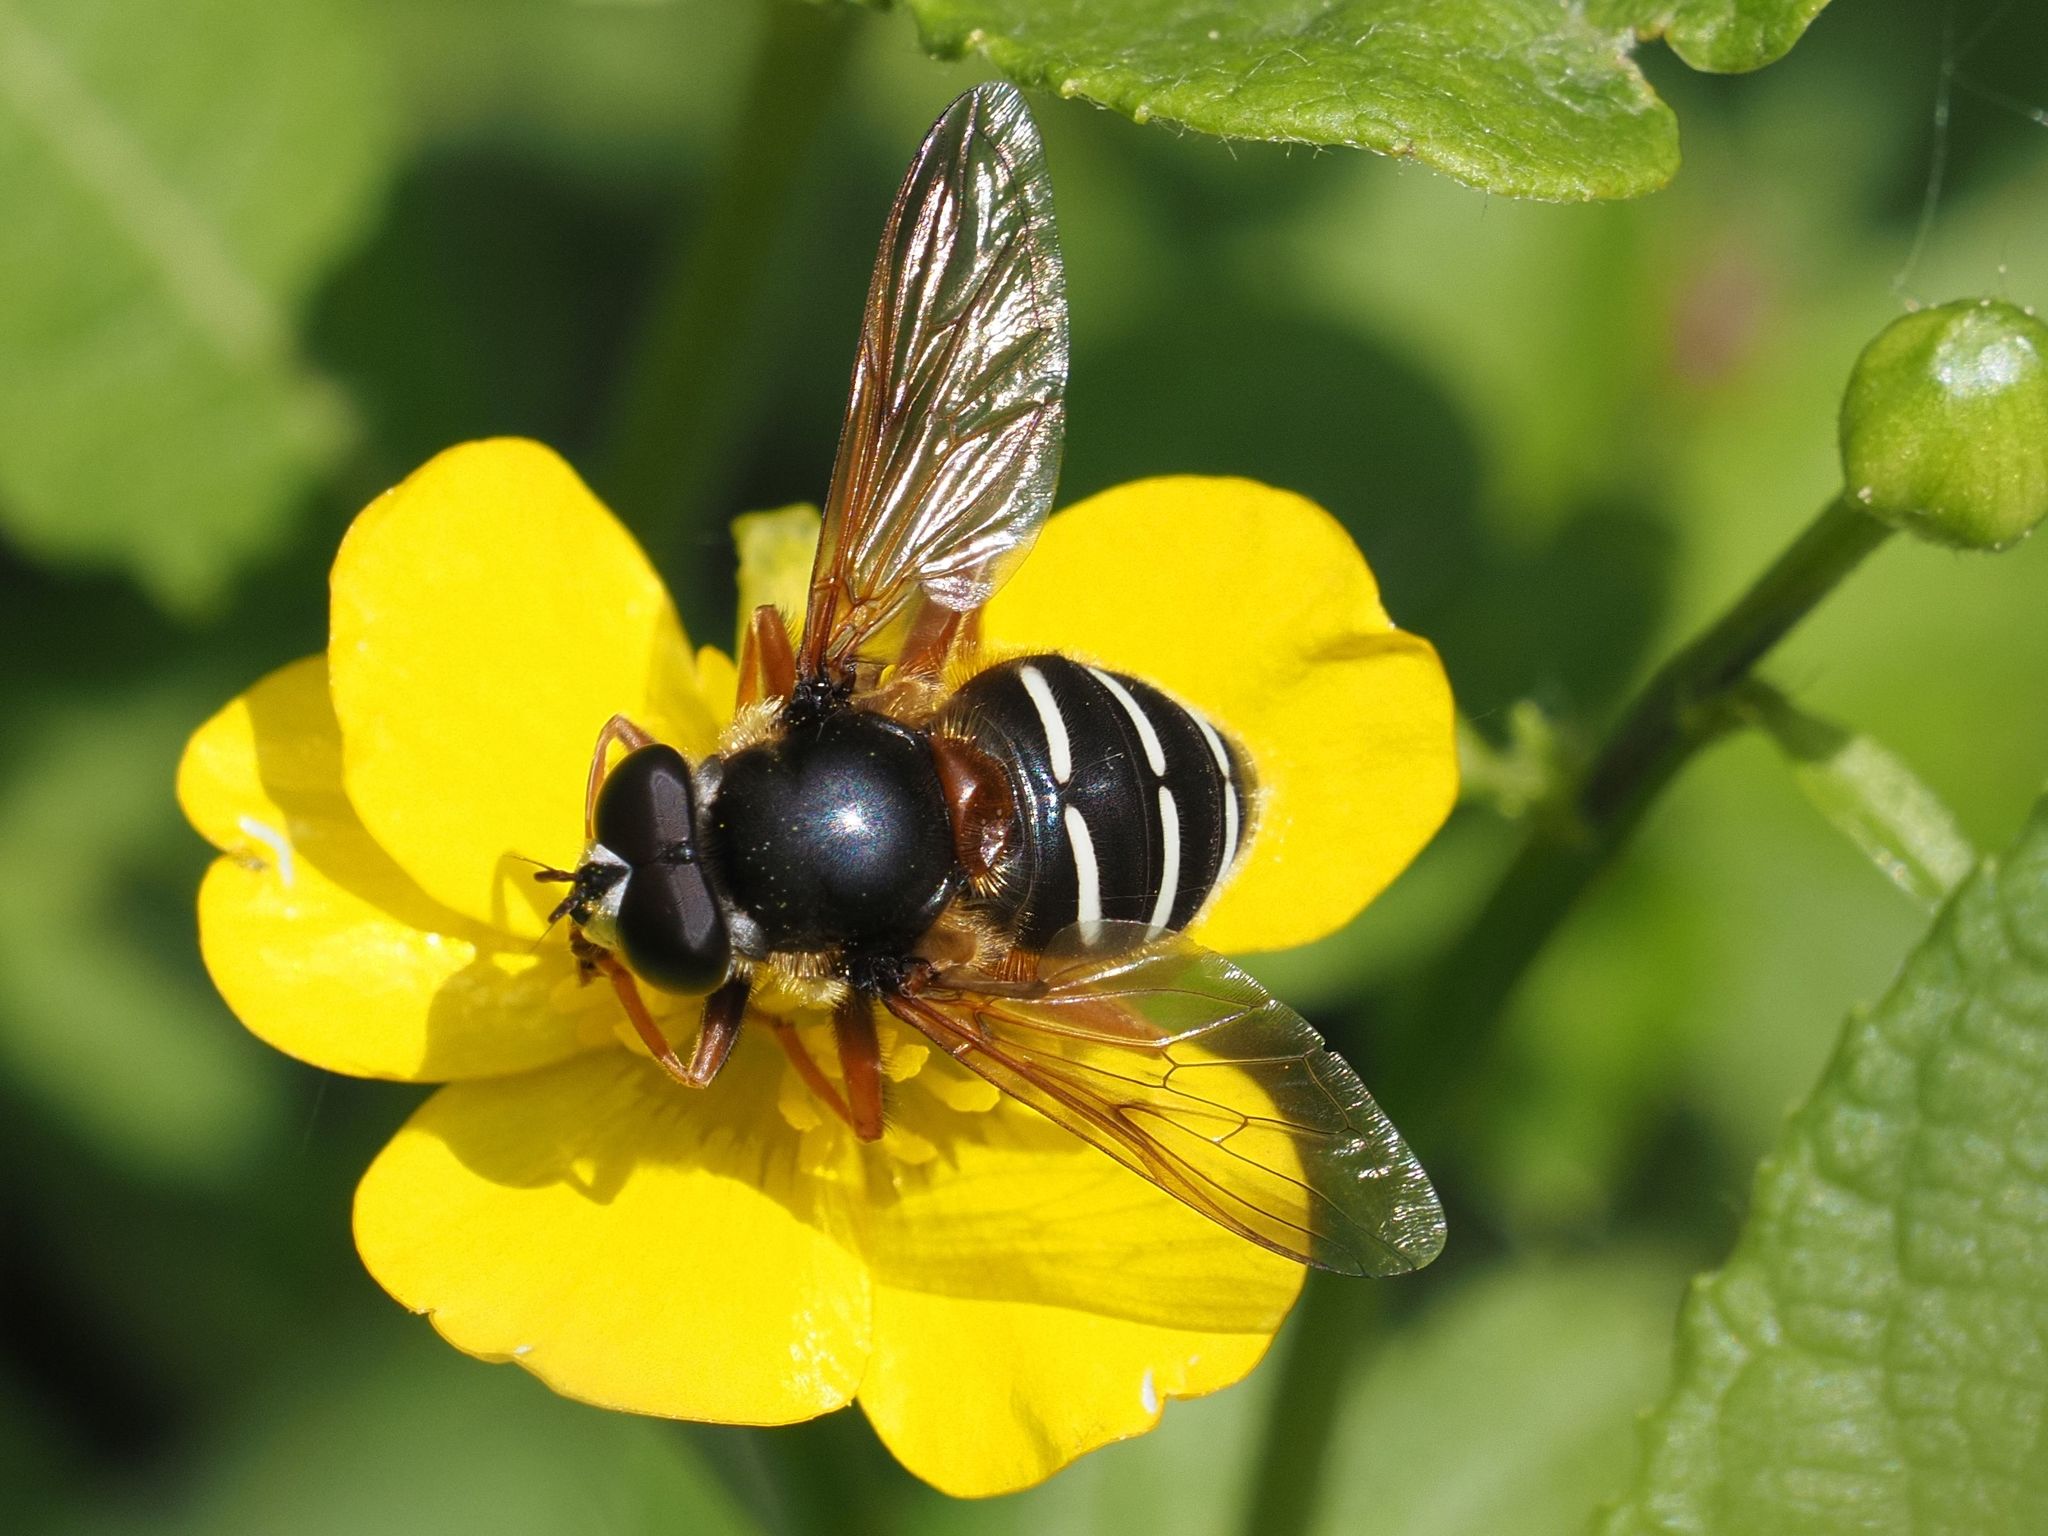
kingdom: Animalia
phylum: Arthropoda
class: Insecta
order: Diptera
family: Syrphidae
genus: Sericomyia
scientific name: Sericomyia lappona
